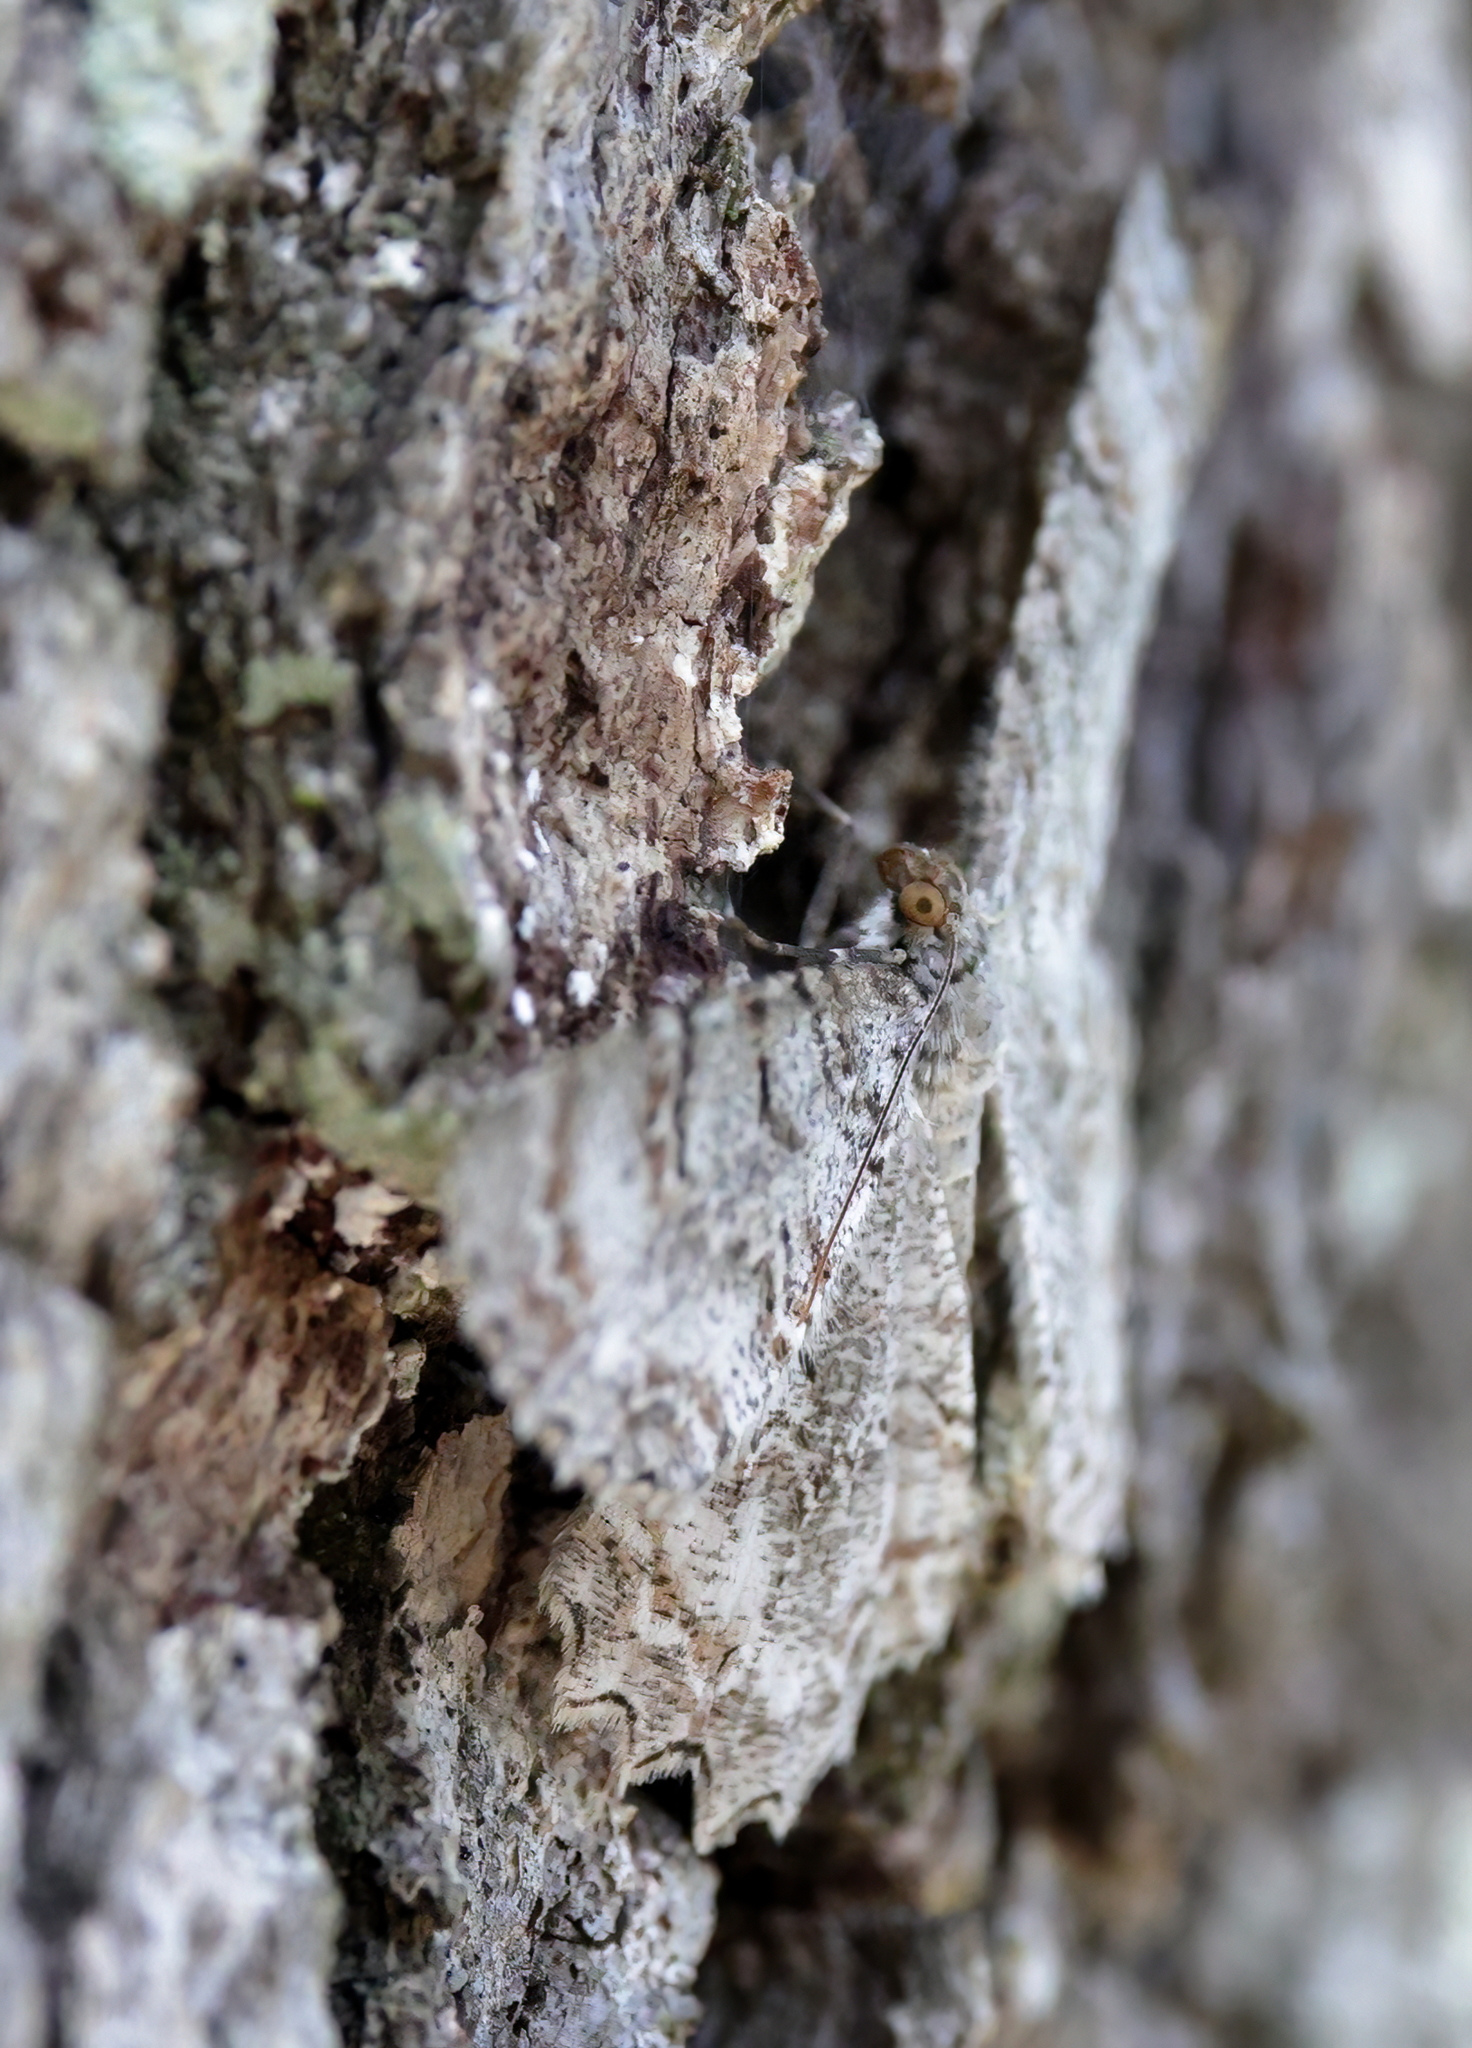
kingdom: Animalia
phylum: Arthropoda
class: Insecta
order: Lepidoptera
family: Geometridae
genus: Epimecis
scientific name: Epimecis hortaria
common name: Tulip-tree beauty
